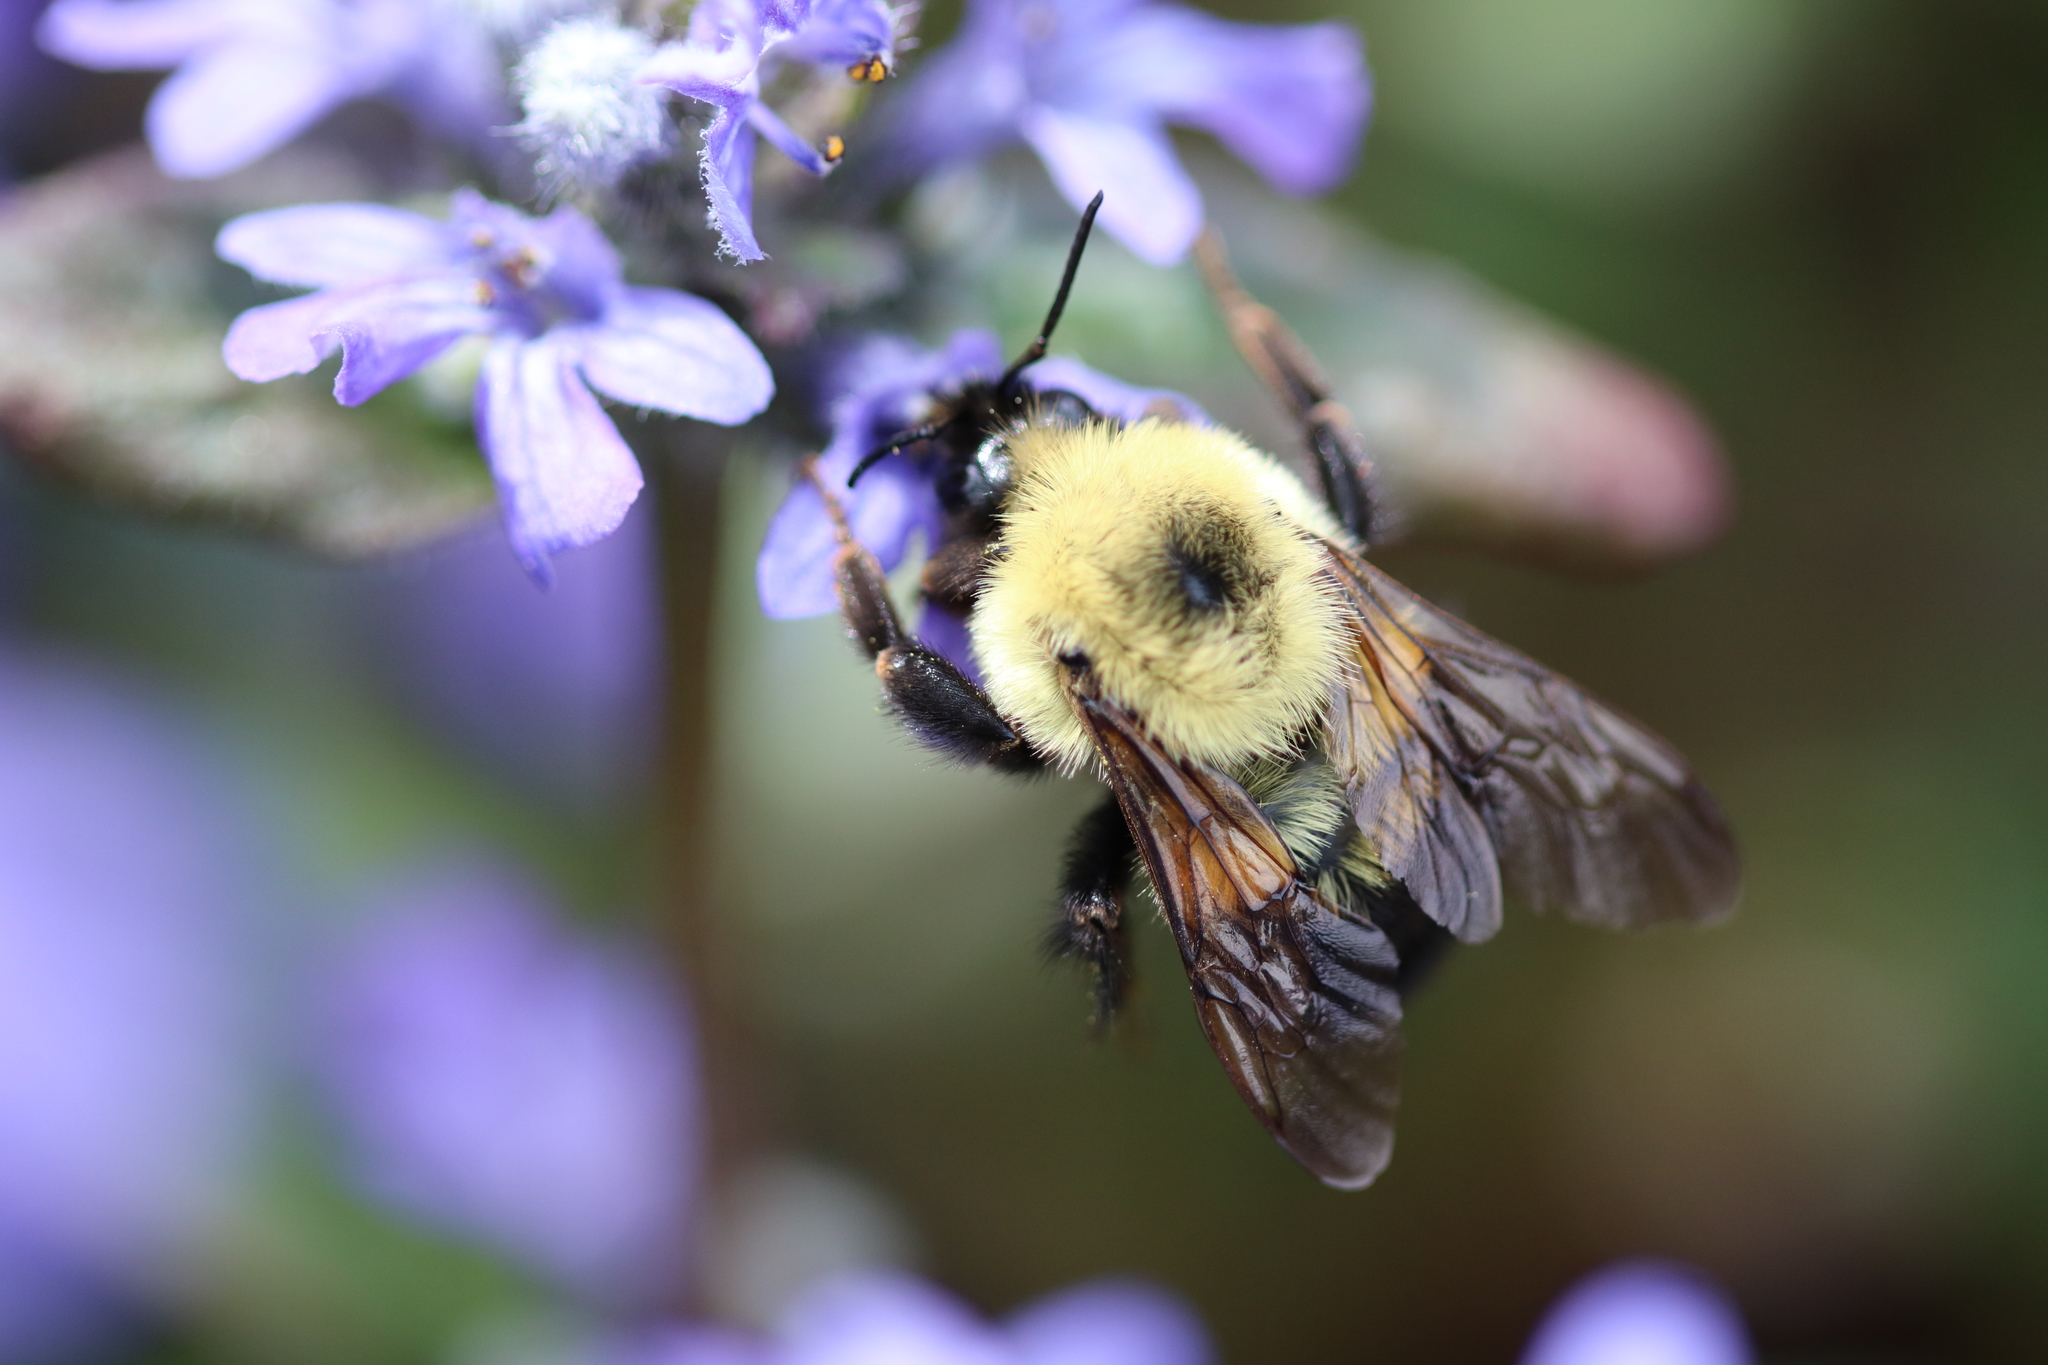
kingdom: Animalia
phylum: Arthropoda
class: Insecta
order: Hymenoptera
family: Apidae
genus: Bombus
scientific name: Bombus bimaculatus
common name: Two-spotted bumble bee
